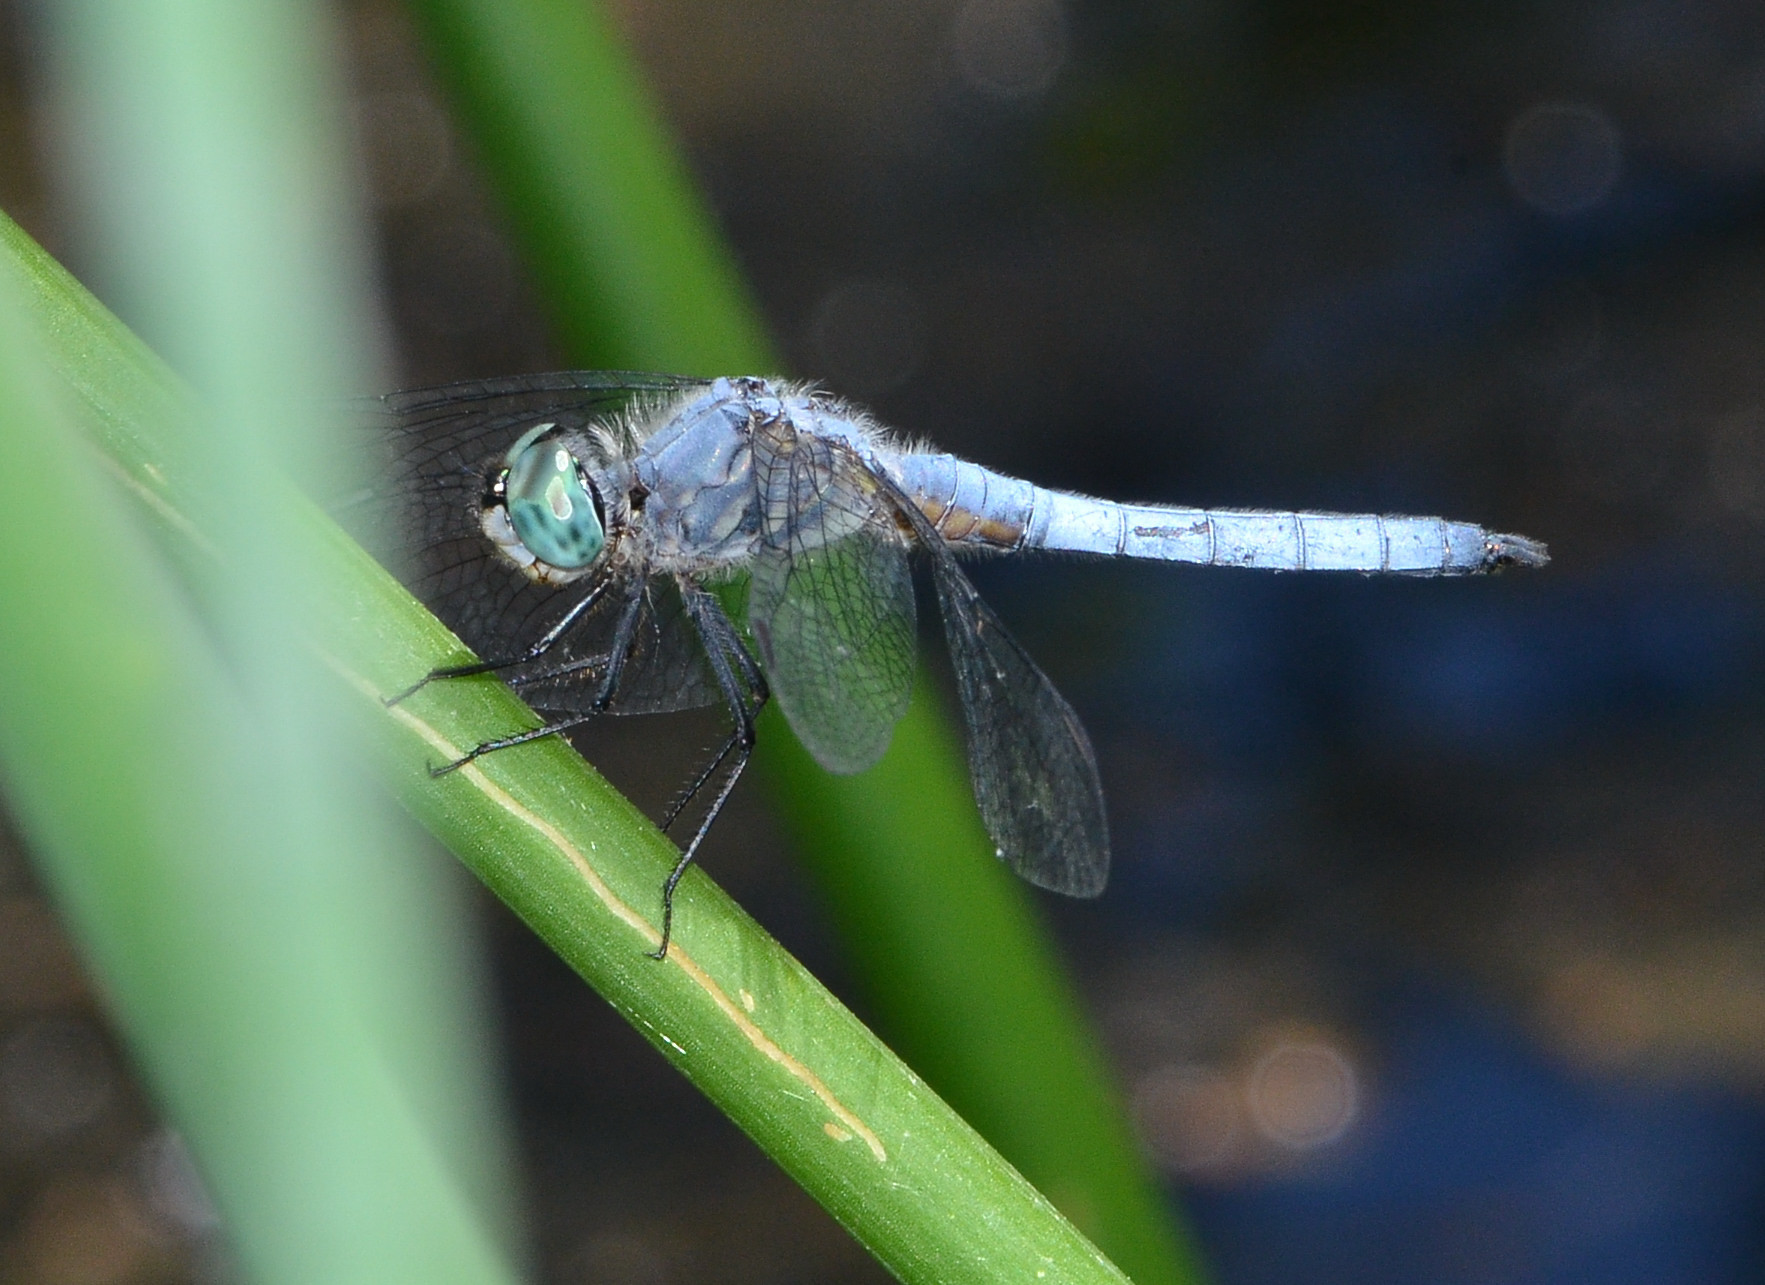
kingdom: Animalia
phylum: Arthropoda
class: Insecta
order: Odonata
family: Libellulidae
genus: Pachydiplax
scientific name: Pachydiplax longipennis
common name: Blue dasher
